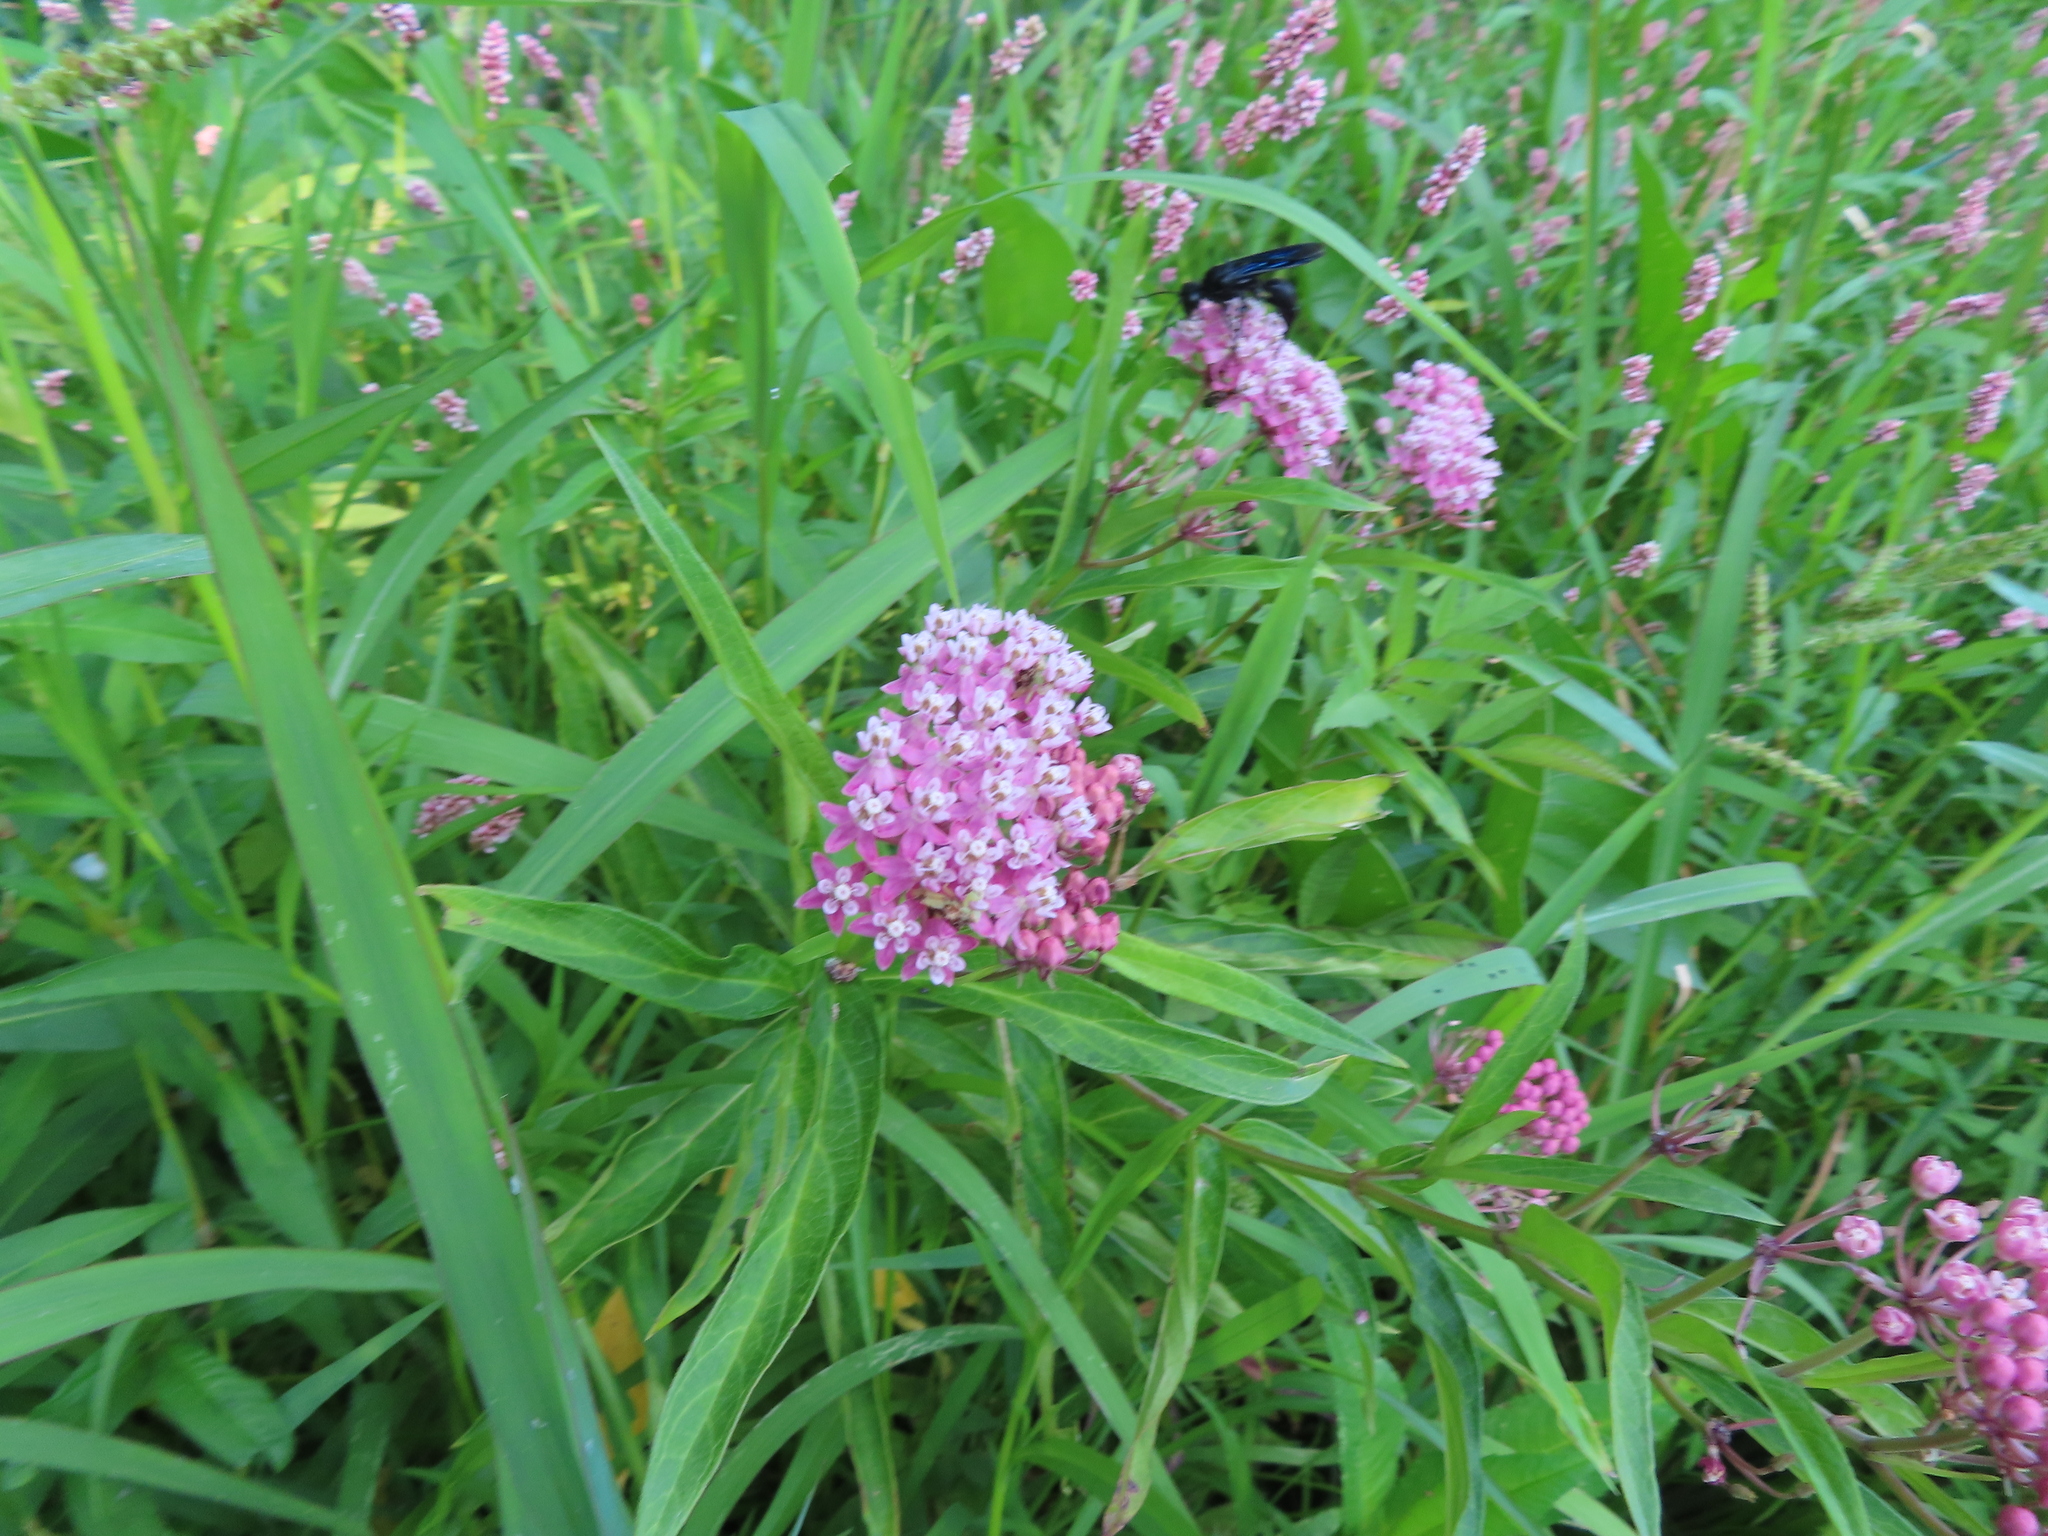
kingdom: Plantae
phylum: Tracheophyta
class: Magnoliopsida
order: Gentianales
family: Apocynaceae
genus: Asclepias
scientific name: Asclepias incarnata
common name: Swamp milkweed
